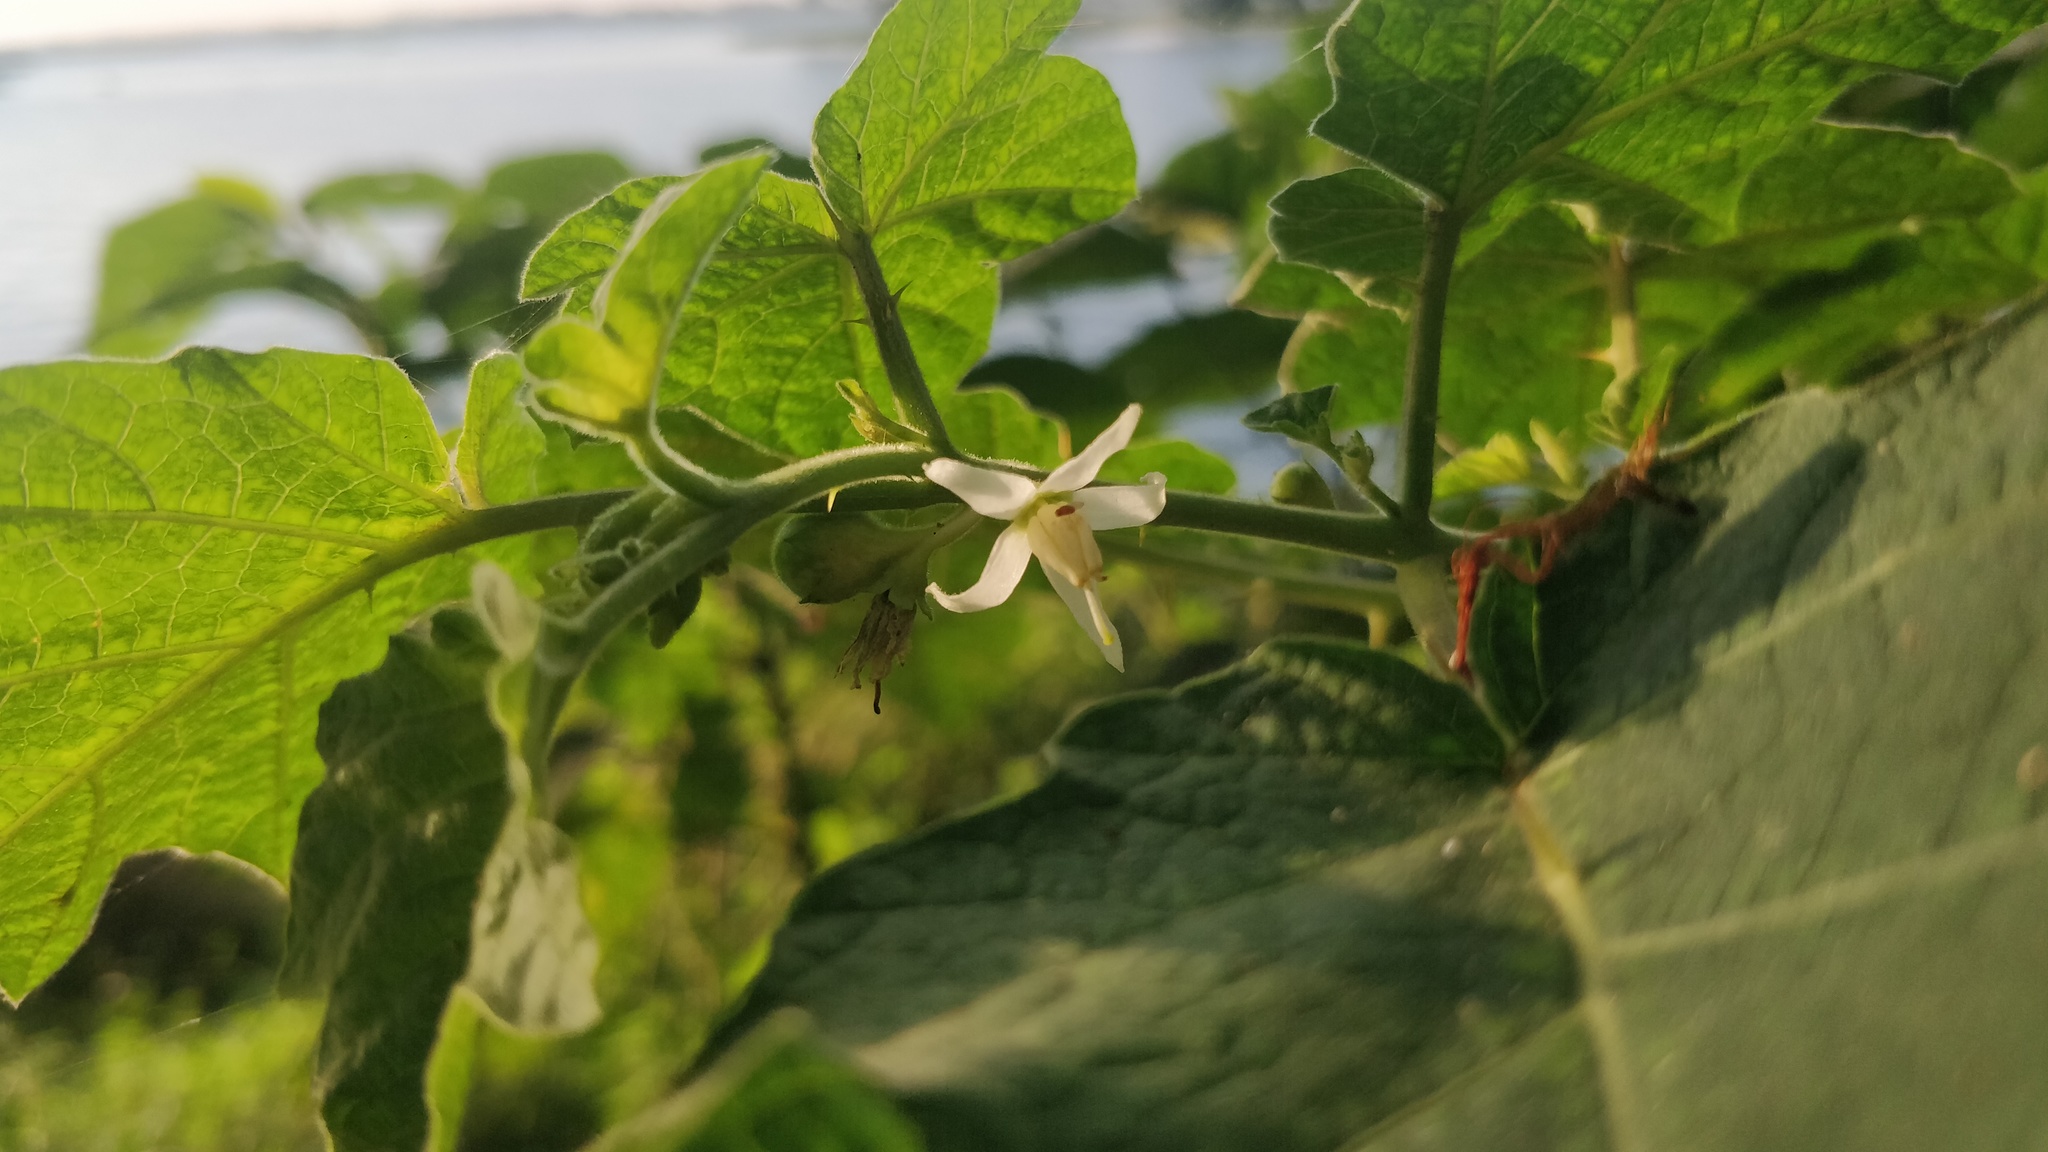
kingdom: Plantae
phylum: Tracheophyta
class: Magnoliopsida
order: Solanales
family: Solanaceae
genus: Solanum
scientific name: Solanum viarum
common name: Tropical soda apple
